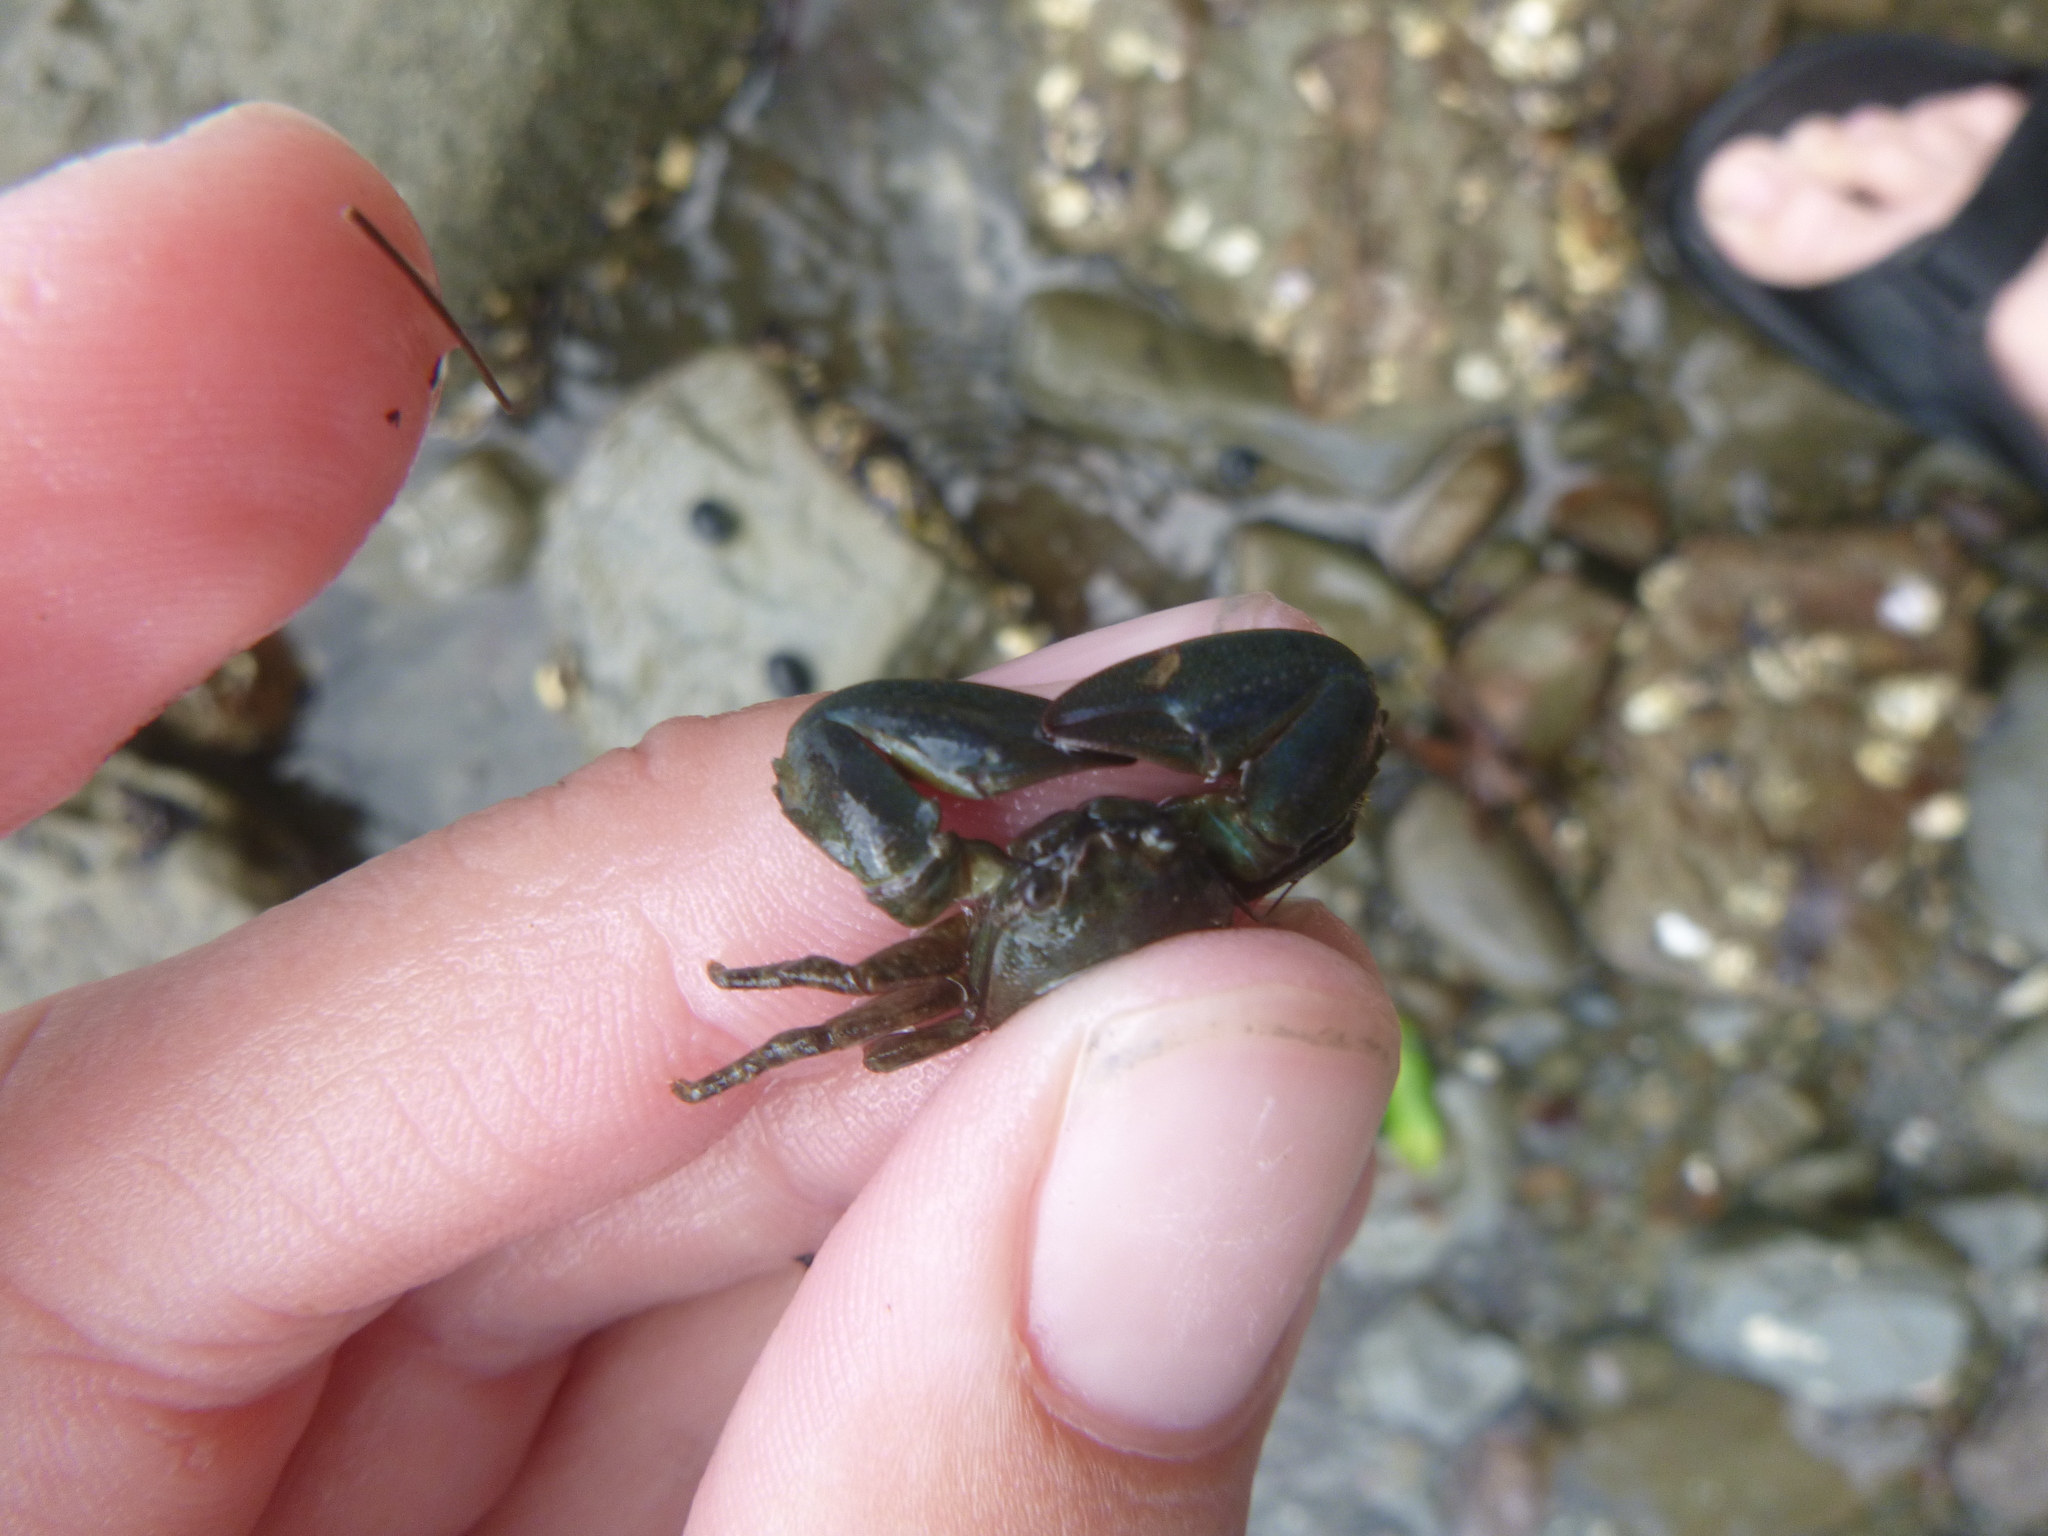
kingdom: Animalia
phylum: Arthropoda
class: Malacostraca
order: Decapoda
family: Porcellanidae
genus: Petrolisthes
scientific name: Petrolisthes elongatus
